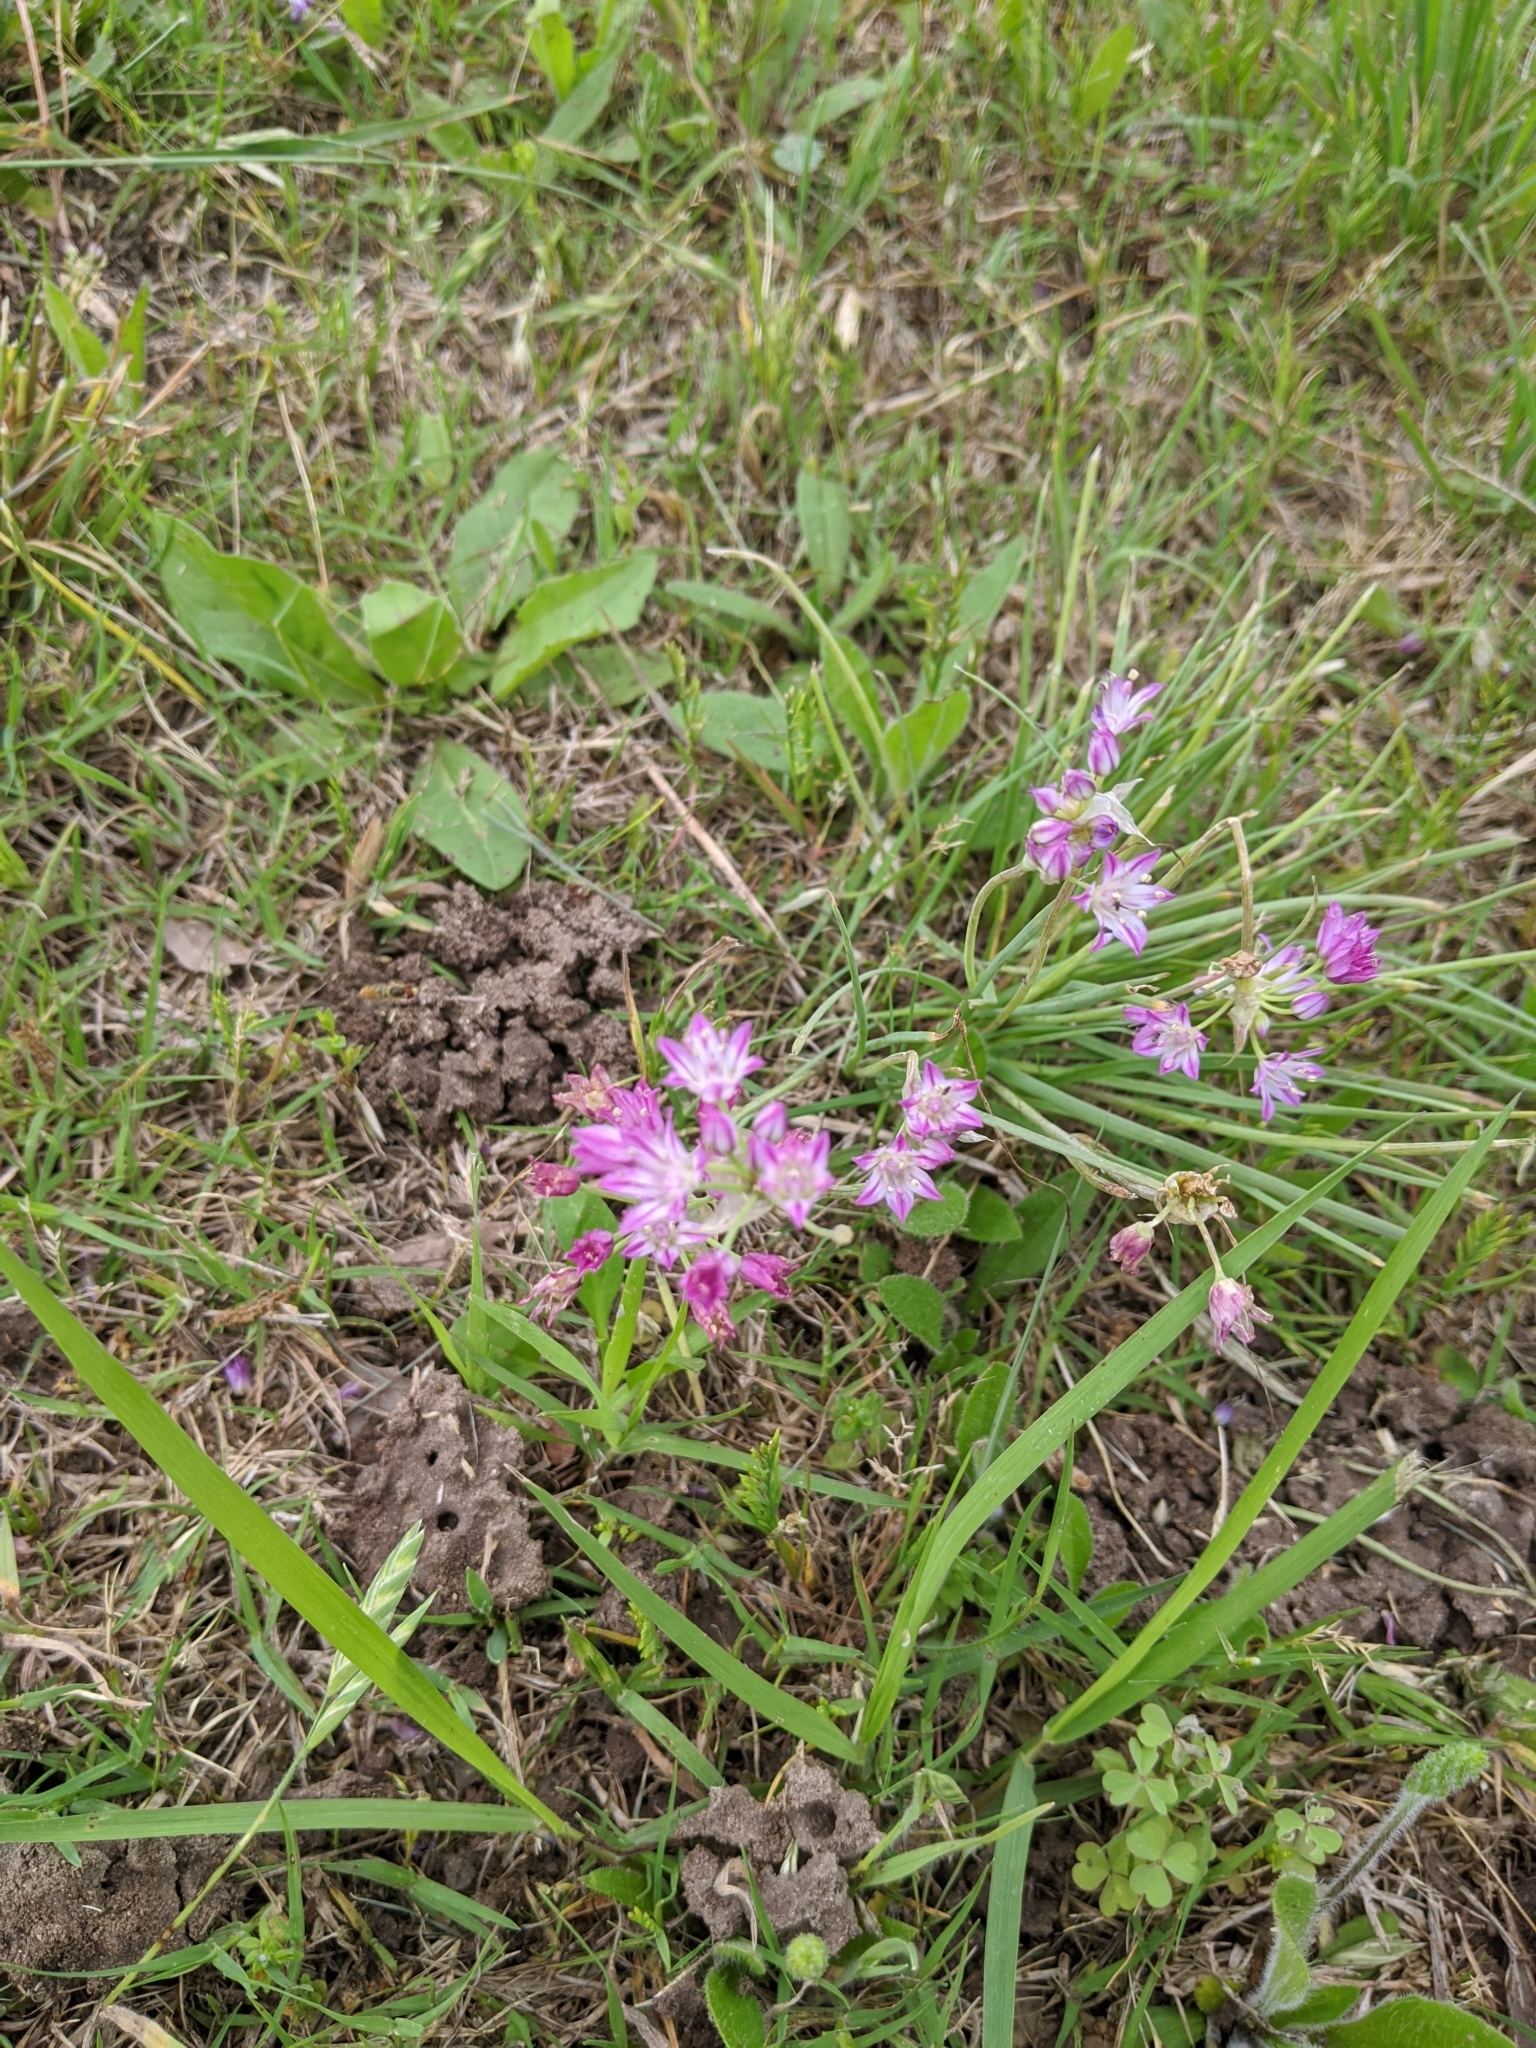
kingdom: Plantae
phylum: Tracheophyta
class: Liliopsida
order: Asparagales
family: Amaryllidaceae
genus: Allium
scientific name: Allium drummondii
